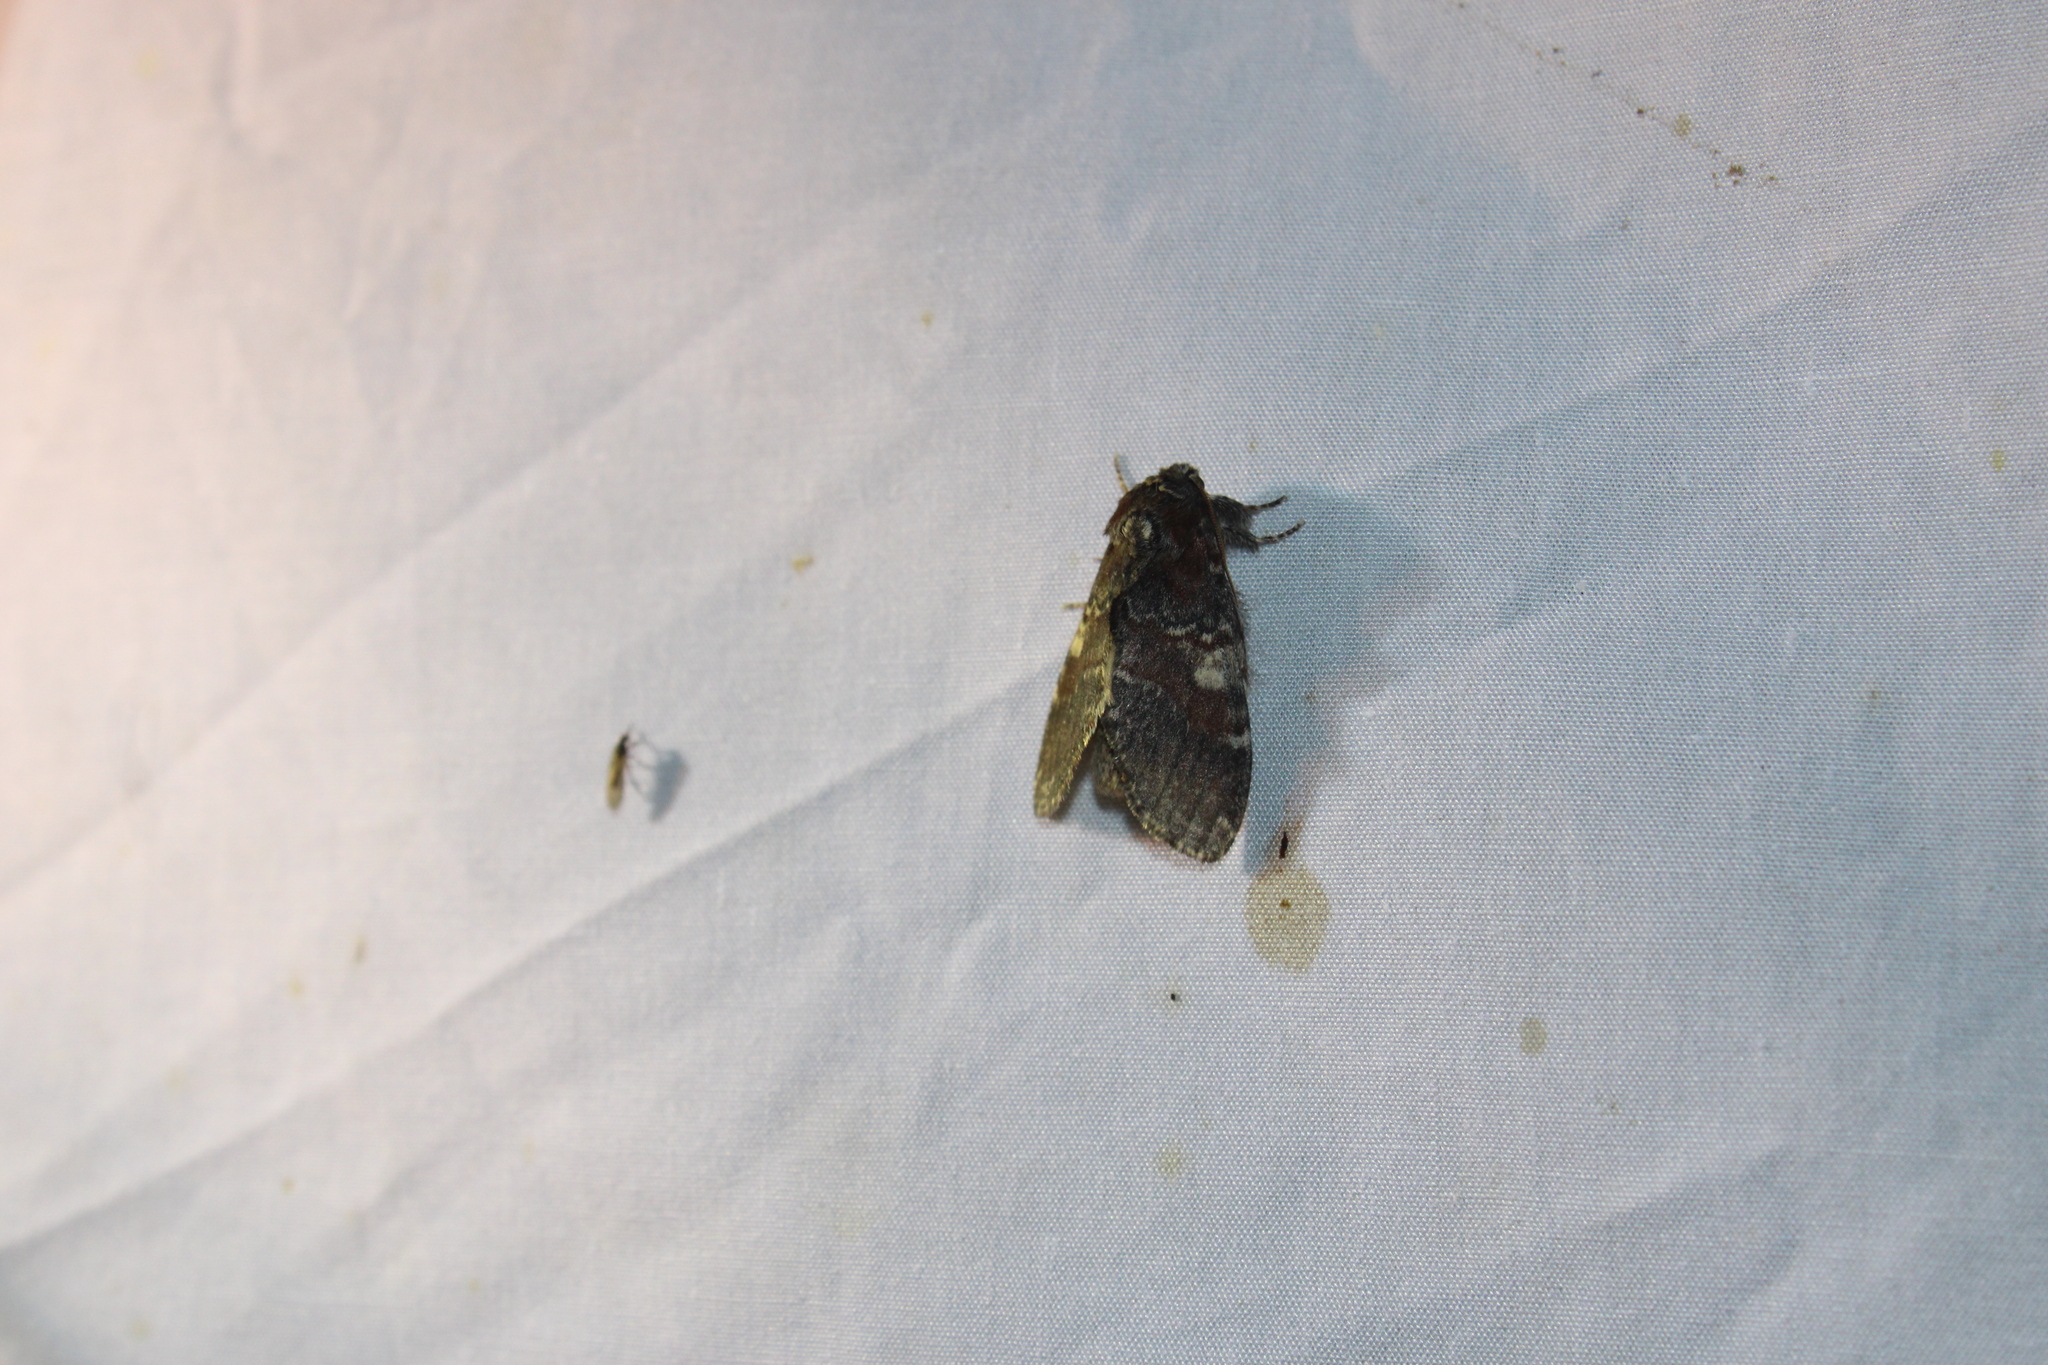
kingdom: Animalia
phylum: Arthropoda
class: Insecta
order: Lepidoptera
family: Notodontidae
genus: Peridea
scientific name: Peridea ferruginea
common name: Chocolate prominent
